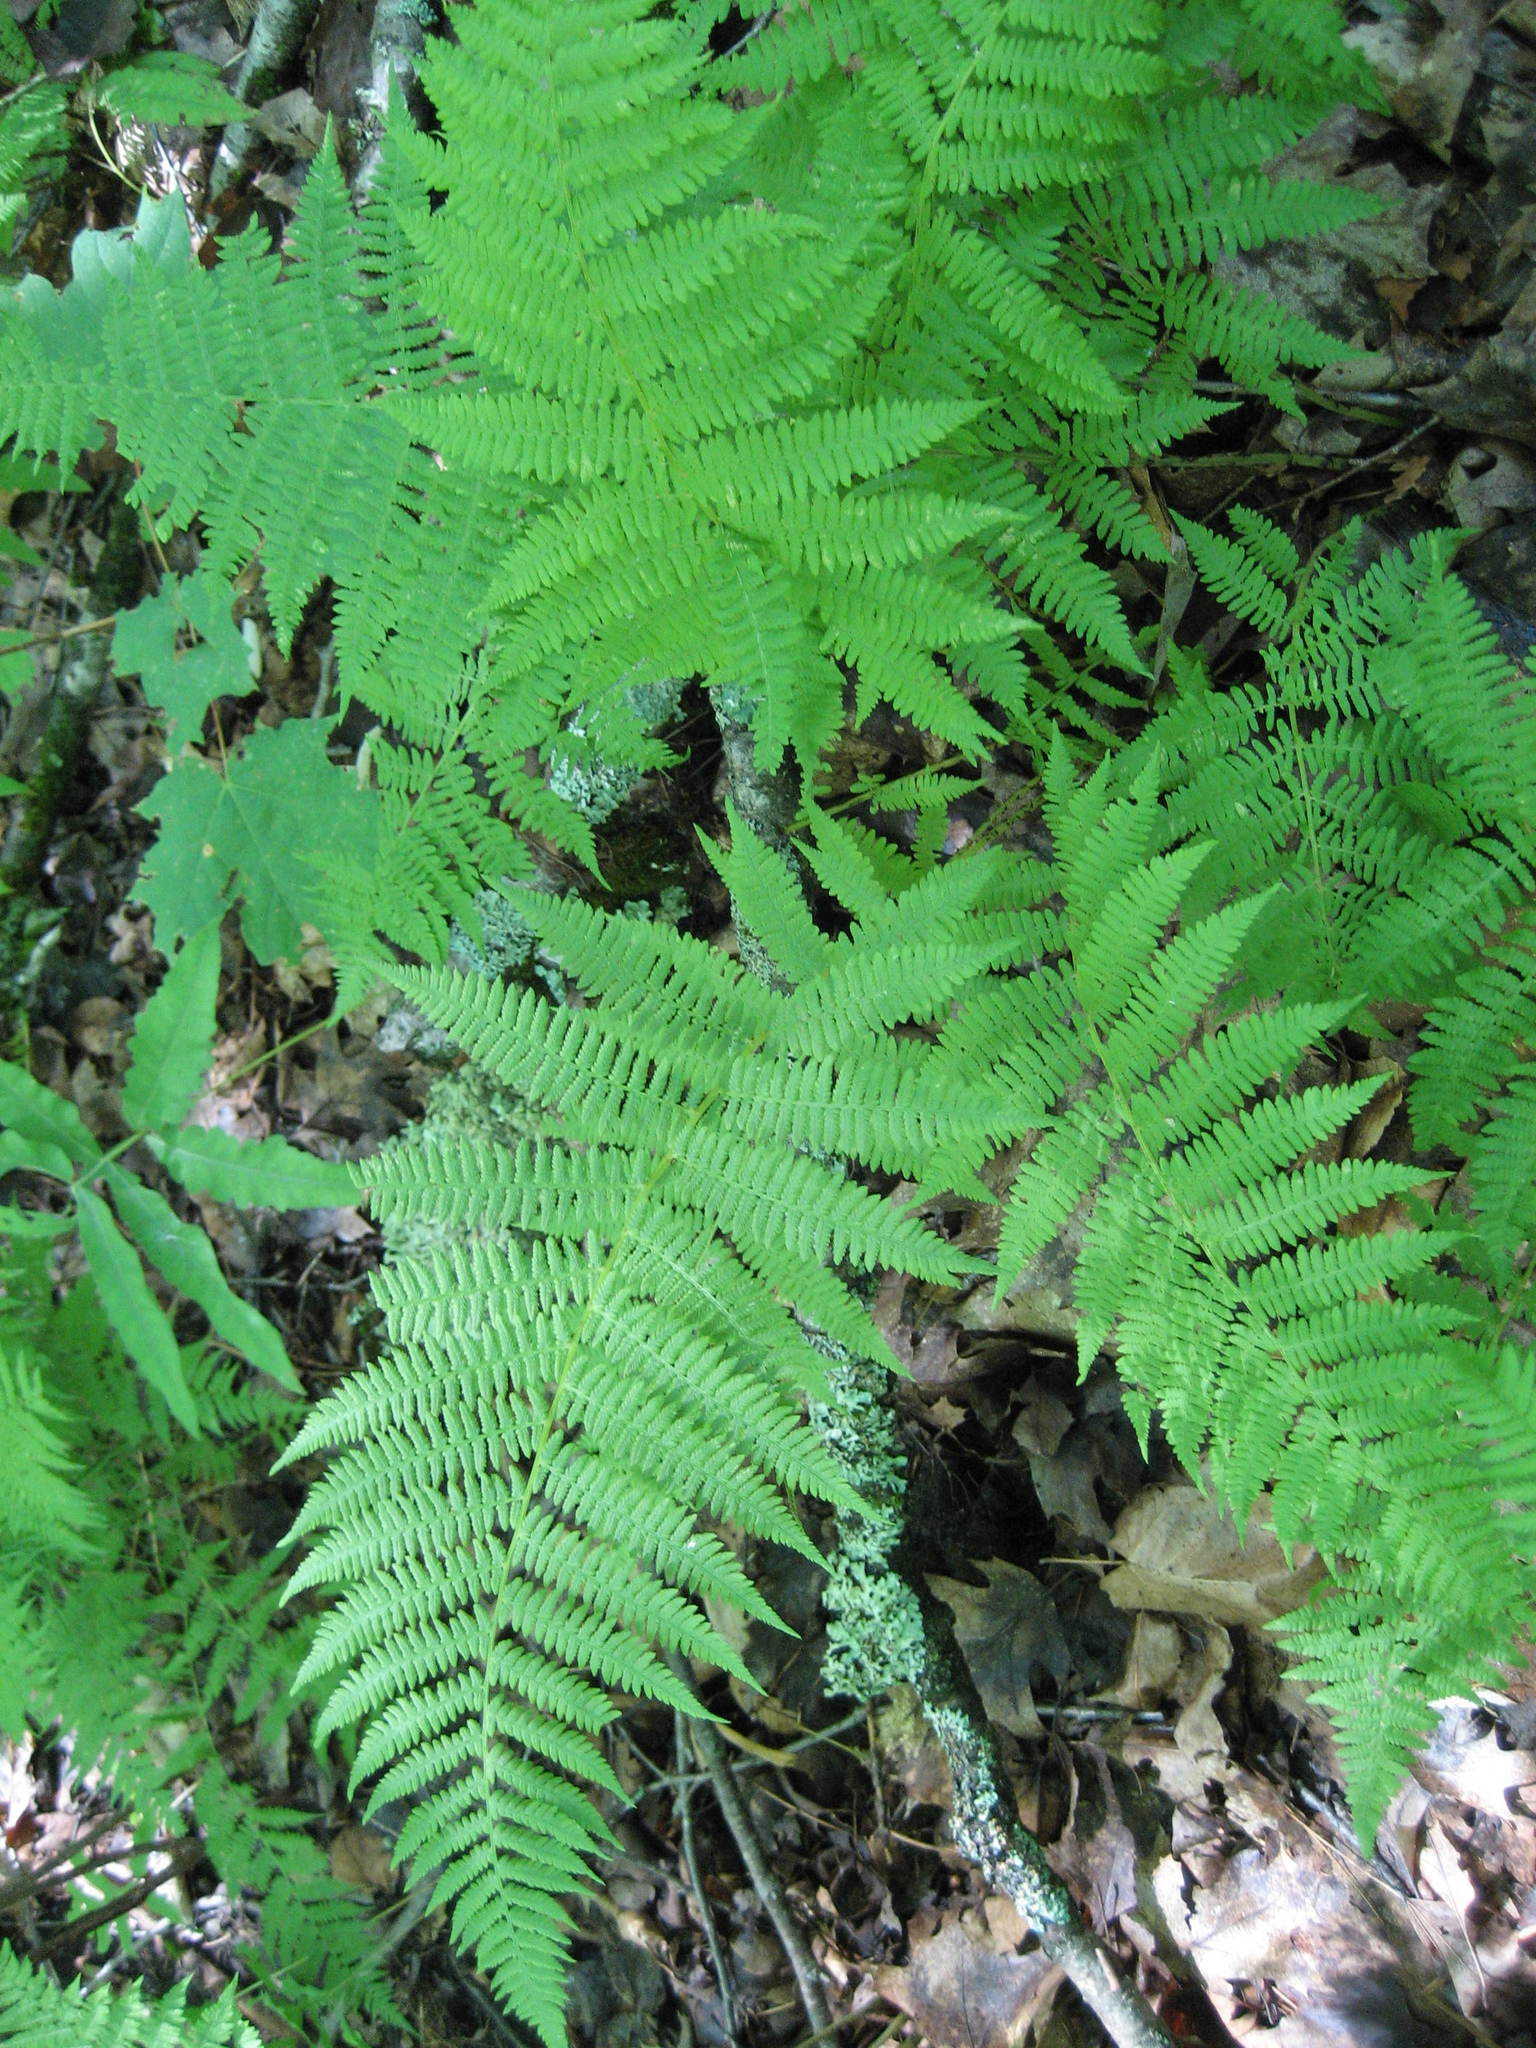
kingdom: Plantae
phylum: Tracheophyta
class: Polypodiopsida
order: Polypodiales
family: Athyriaceae
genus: Athyrium
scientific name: Athyrium angustum
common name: Northern lady fern
